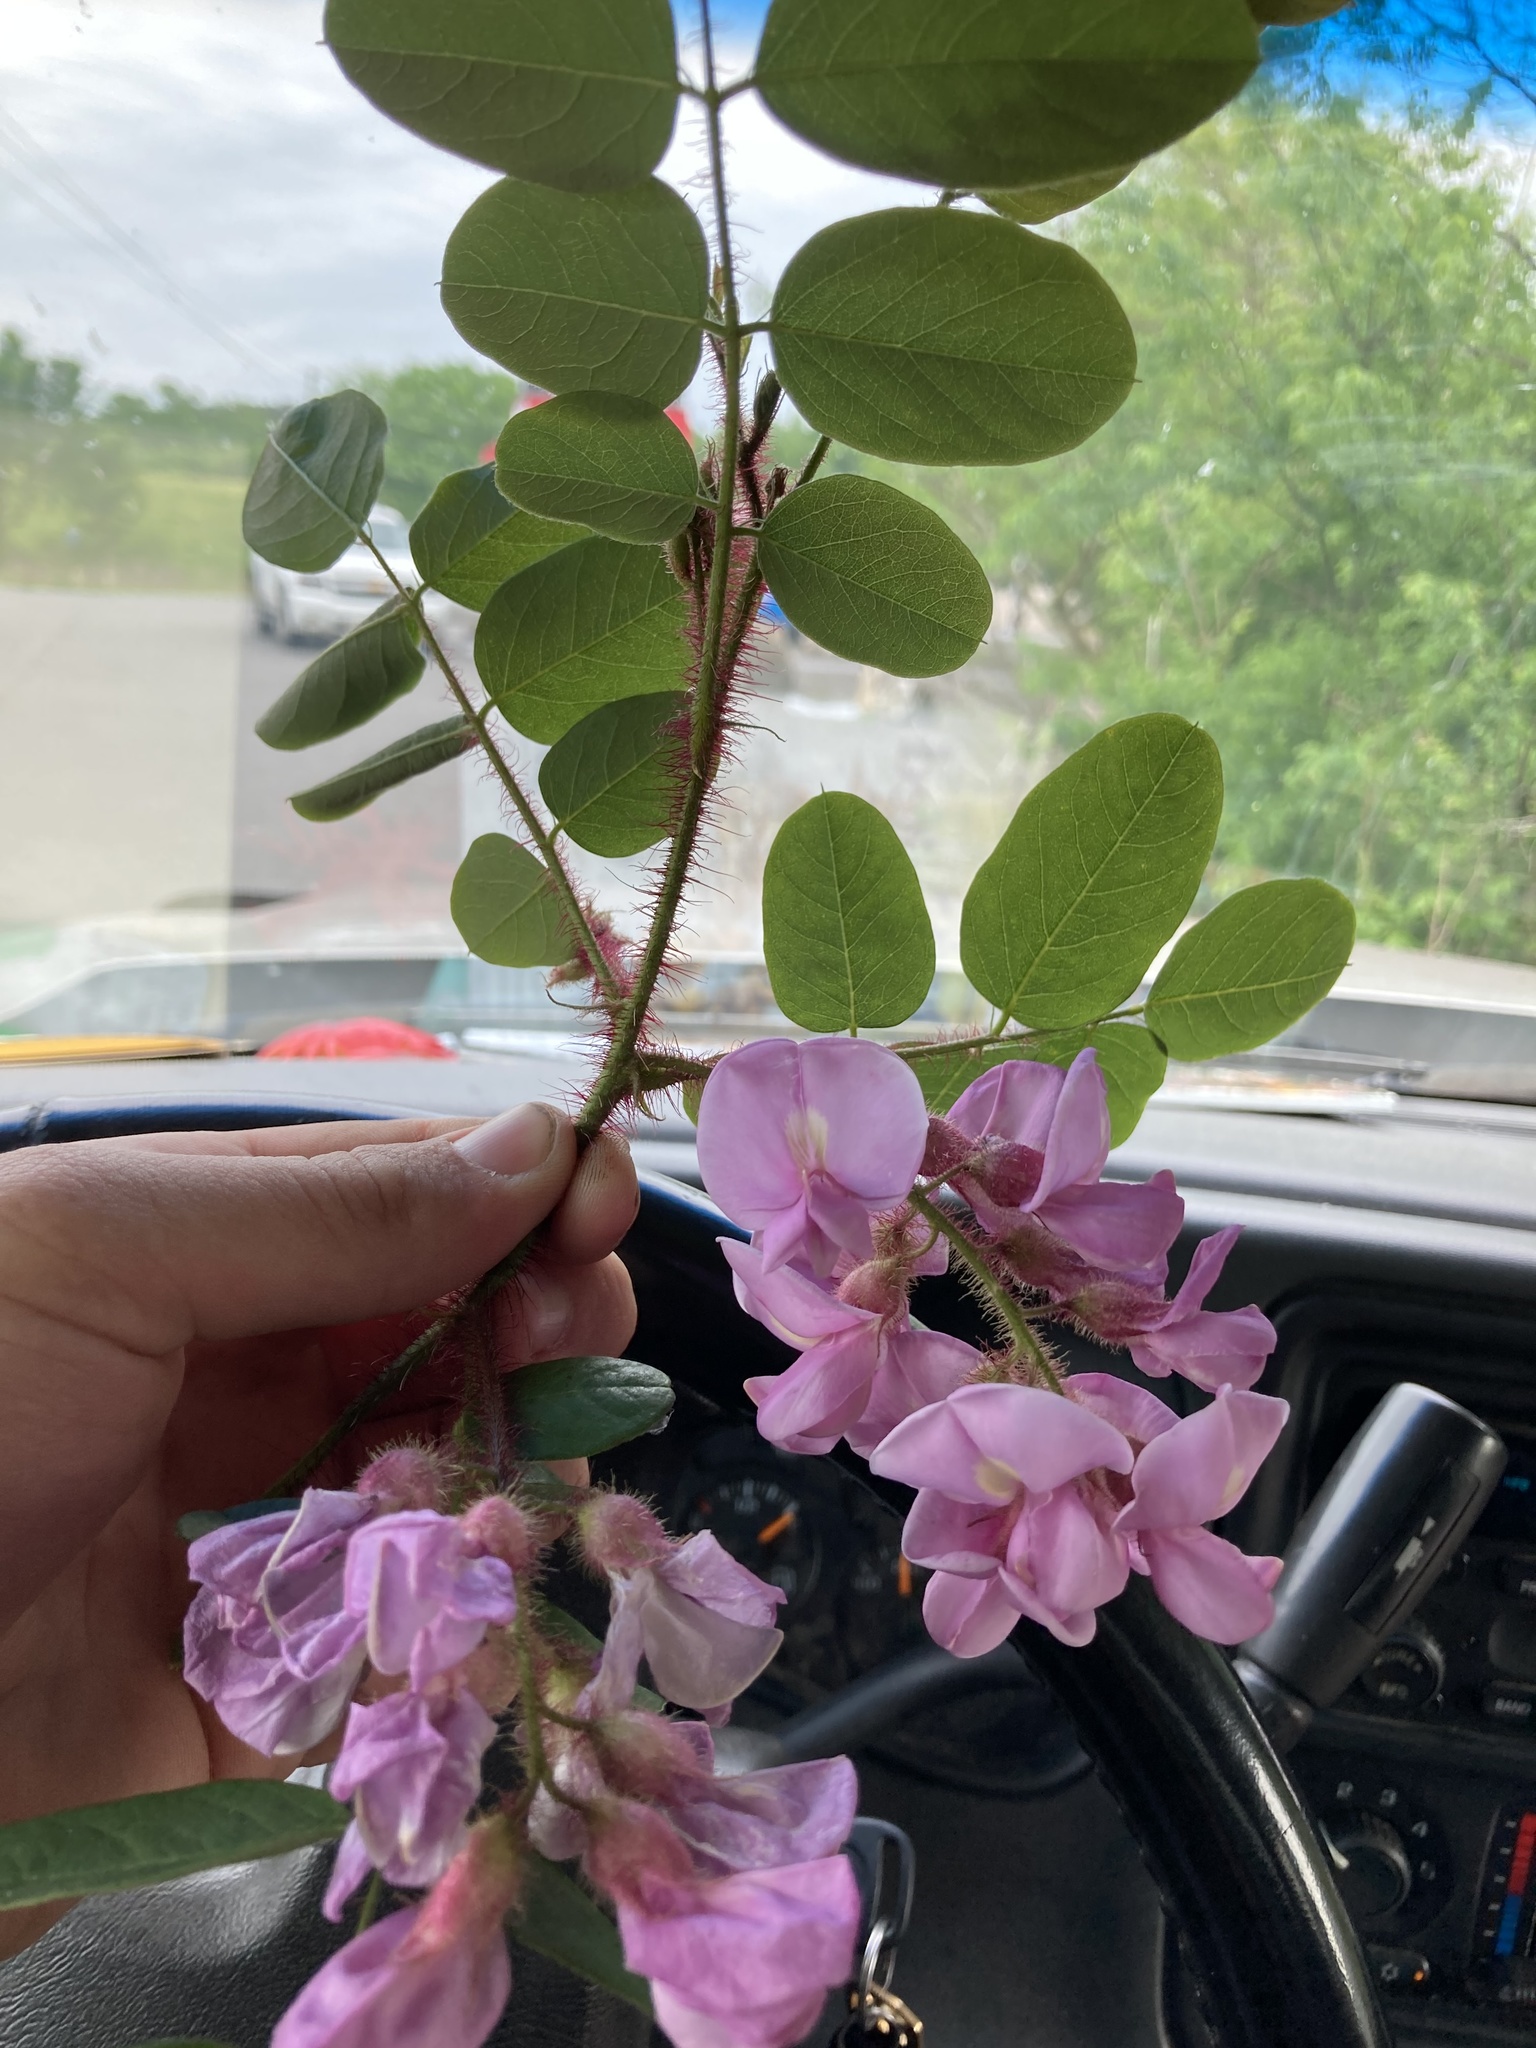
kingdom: Plantae
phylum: Tracheophyta
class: Magnoliopsida
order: Fabales
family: Fabaceae
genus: Robinia
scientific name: Robinia hispida
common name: Bristly locust
